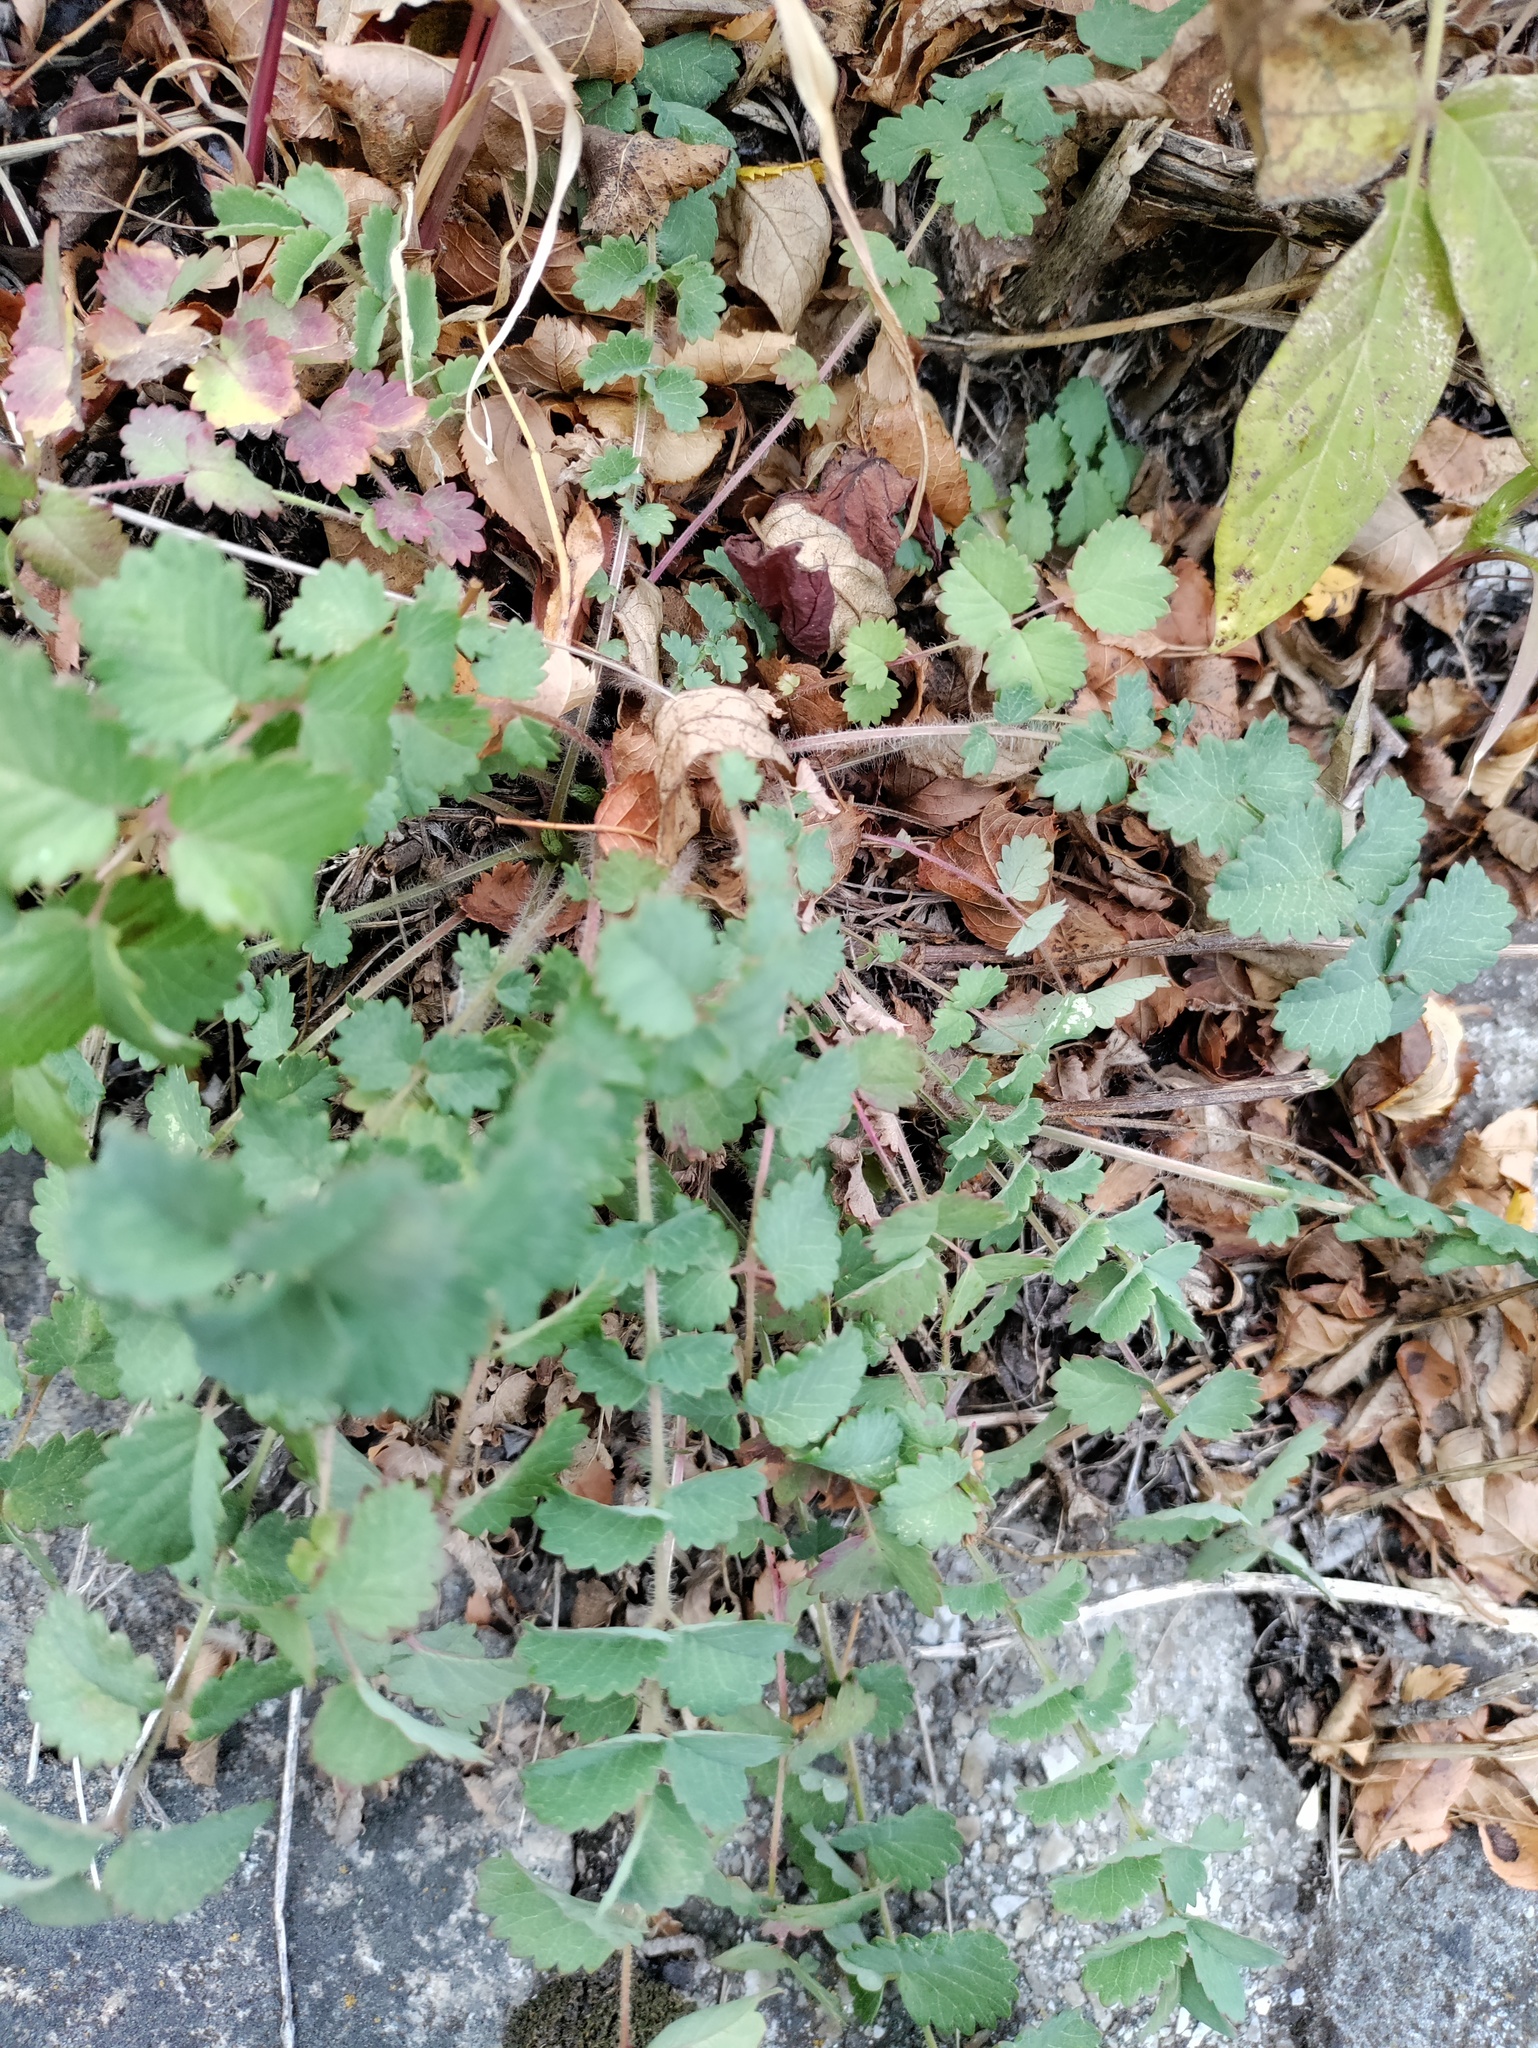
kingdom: Plantae
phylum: Tracheophyta
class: Magnoliopsida
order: Rosales
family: Rosaceae
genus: Poterium
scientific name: Poterium sanguisorba
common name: Salad burnet
